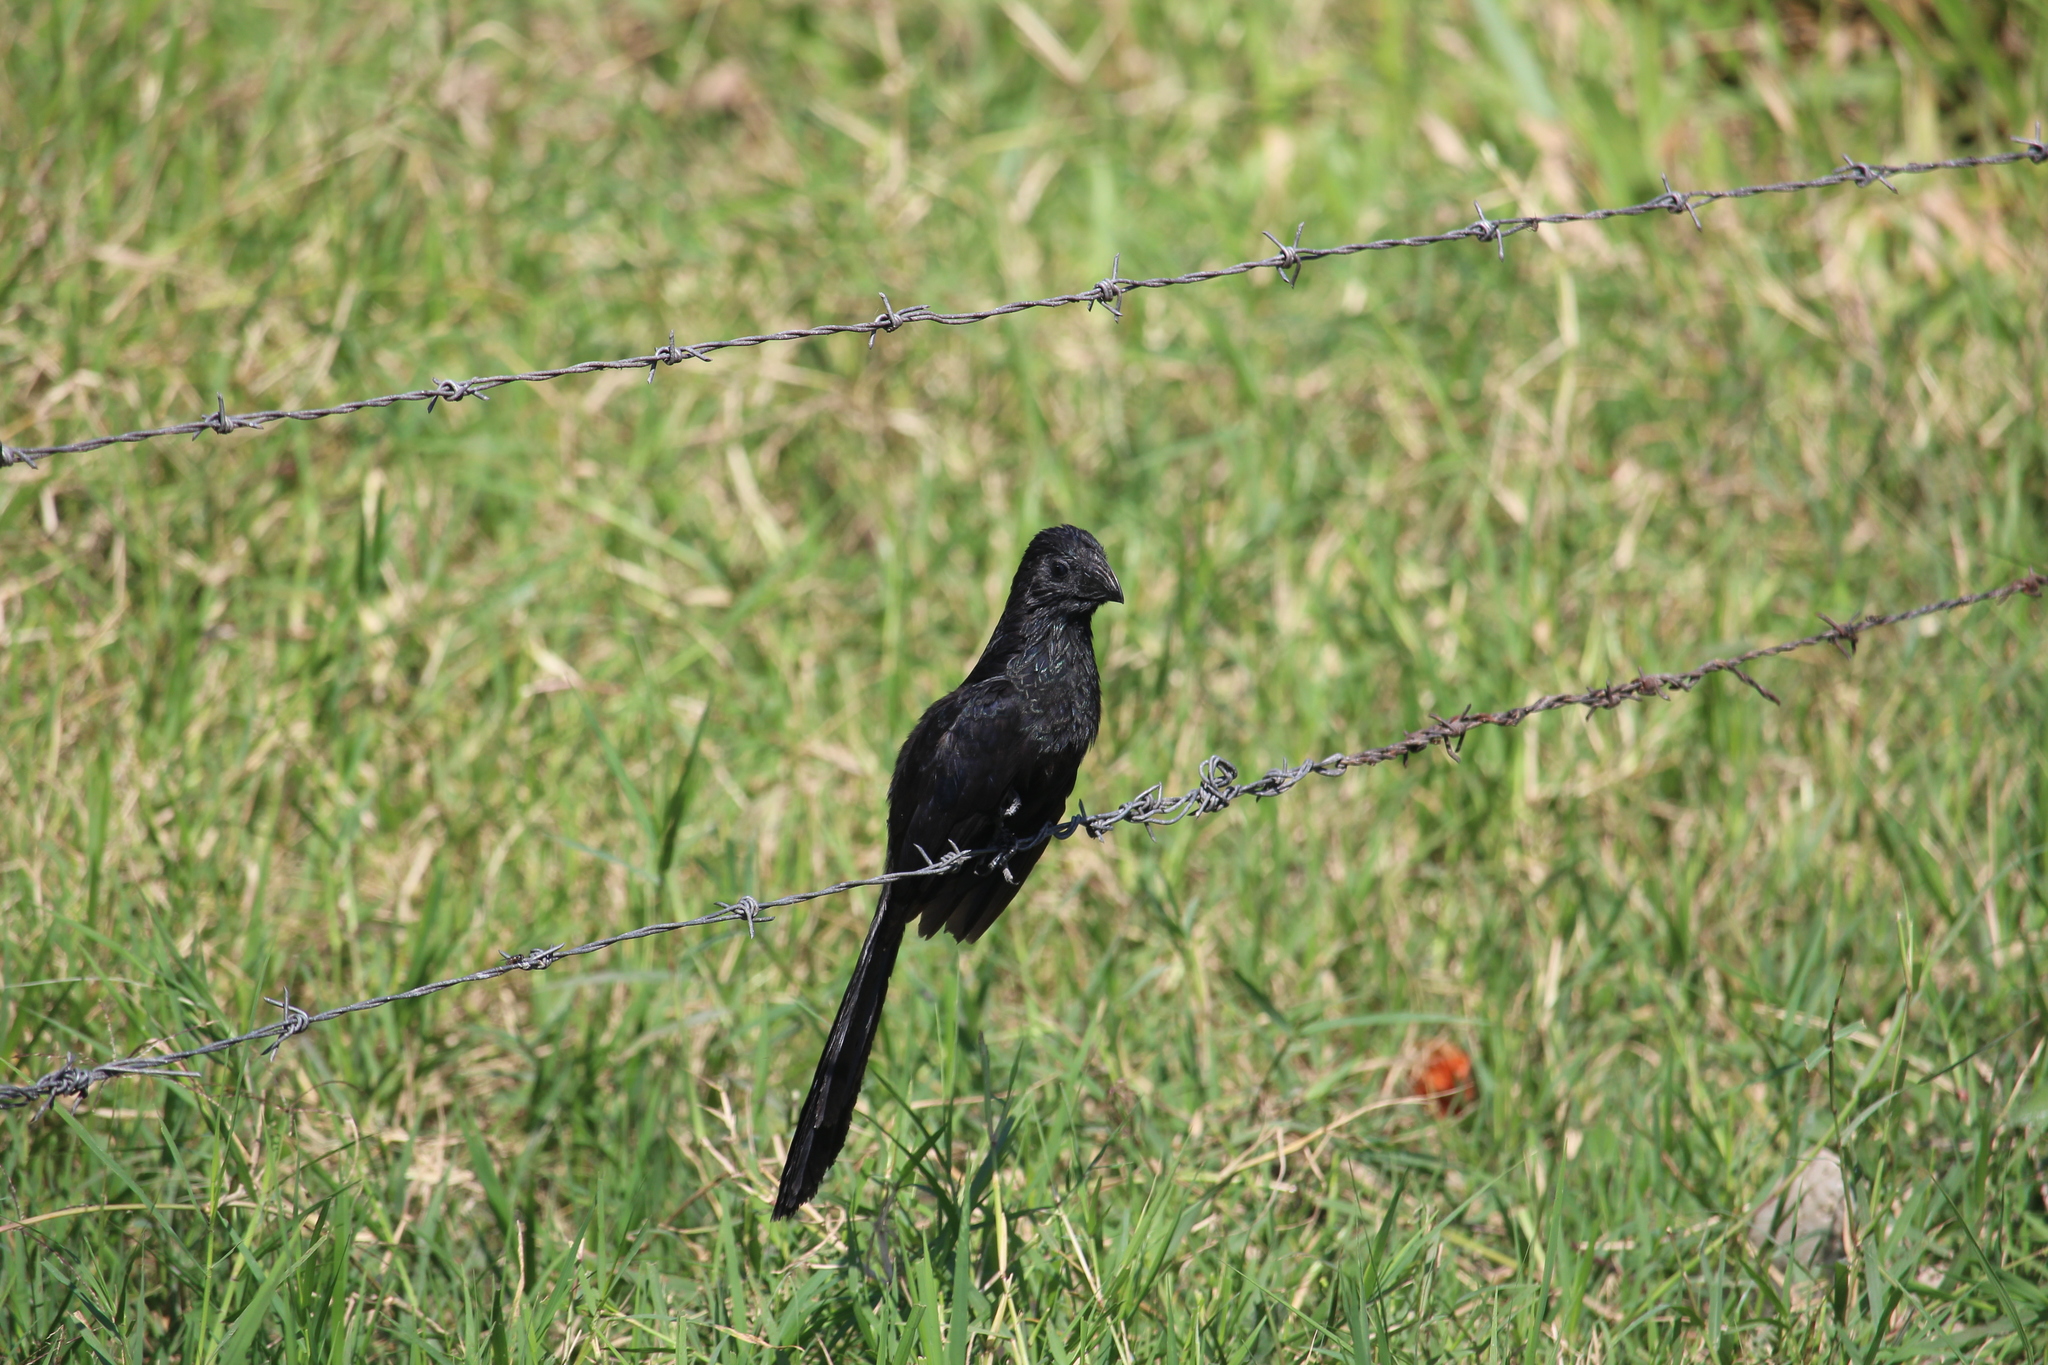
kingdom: Animalia
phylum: Chordata
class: Aves
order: Cuculiformes
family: Cuculidae
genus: Crotophaga
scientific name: Crotophaga sulcirostris
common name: Groove-billed ani
